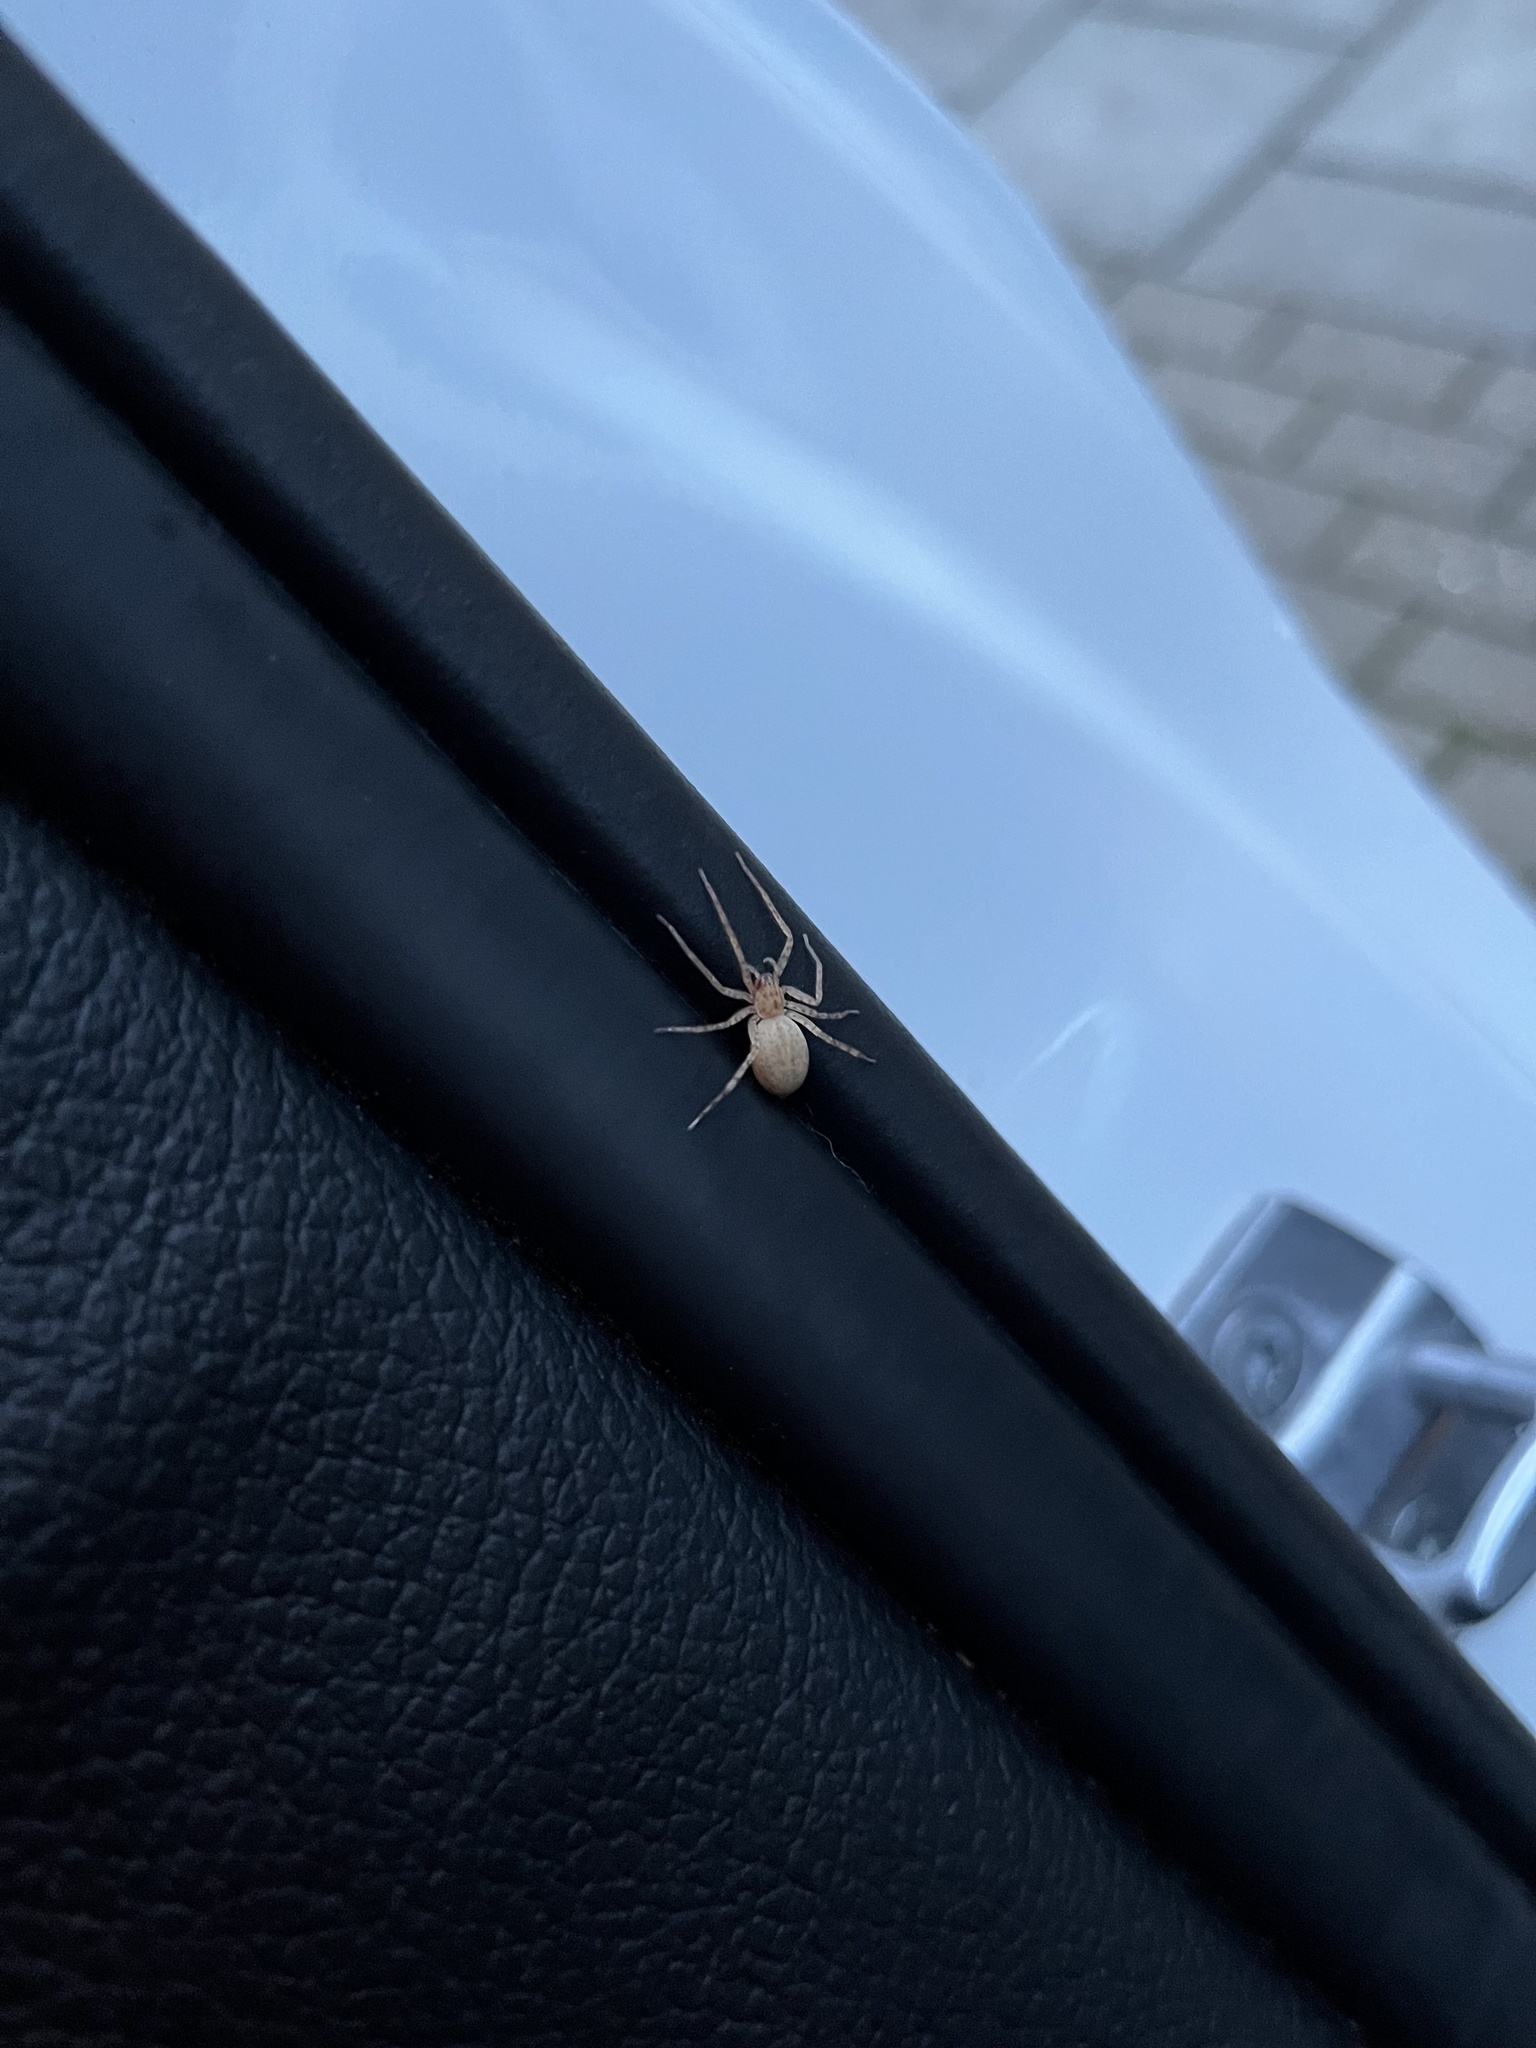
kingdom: Animalia
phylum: Arthropoda
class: Arachnida
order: Araneae
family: Anyphaenidae
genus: Anyphaena
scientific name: Anyphaena numida
